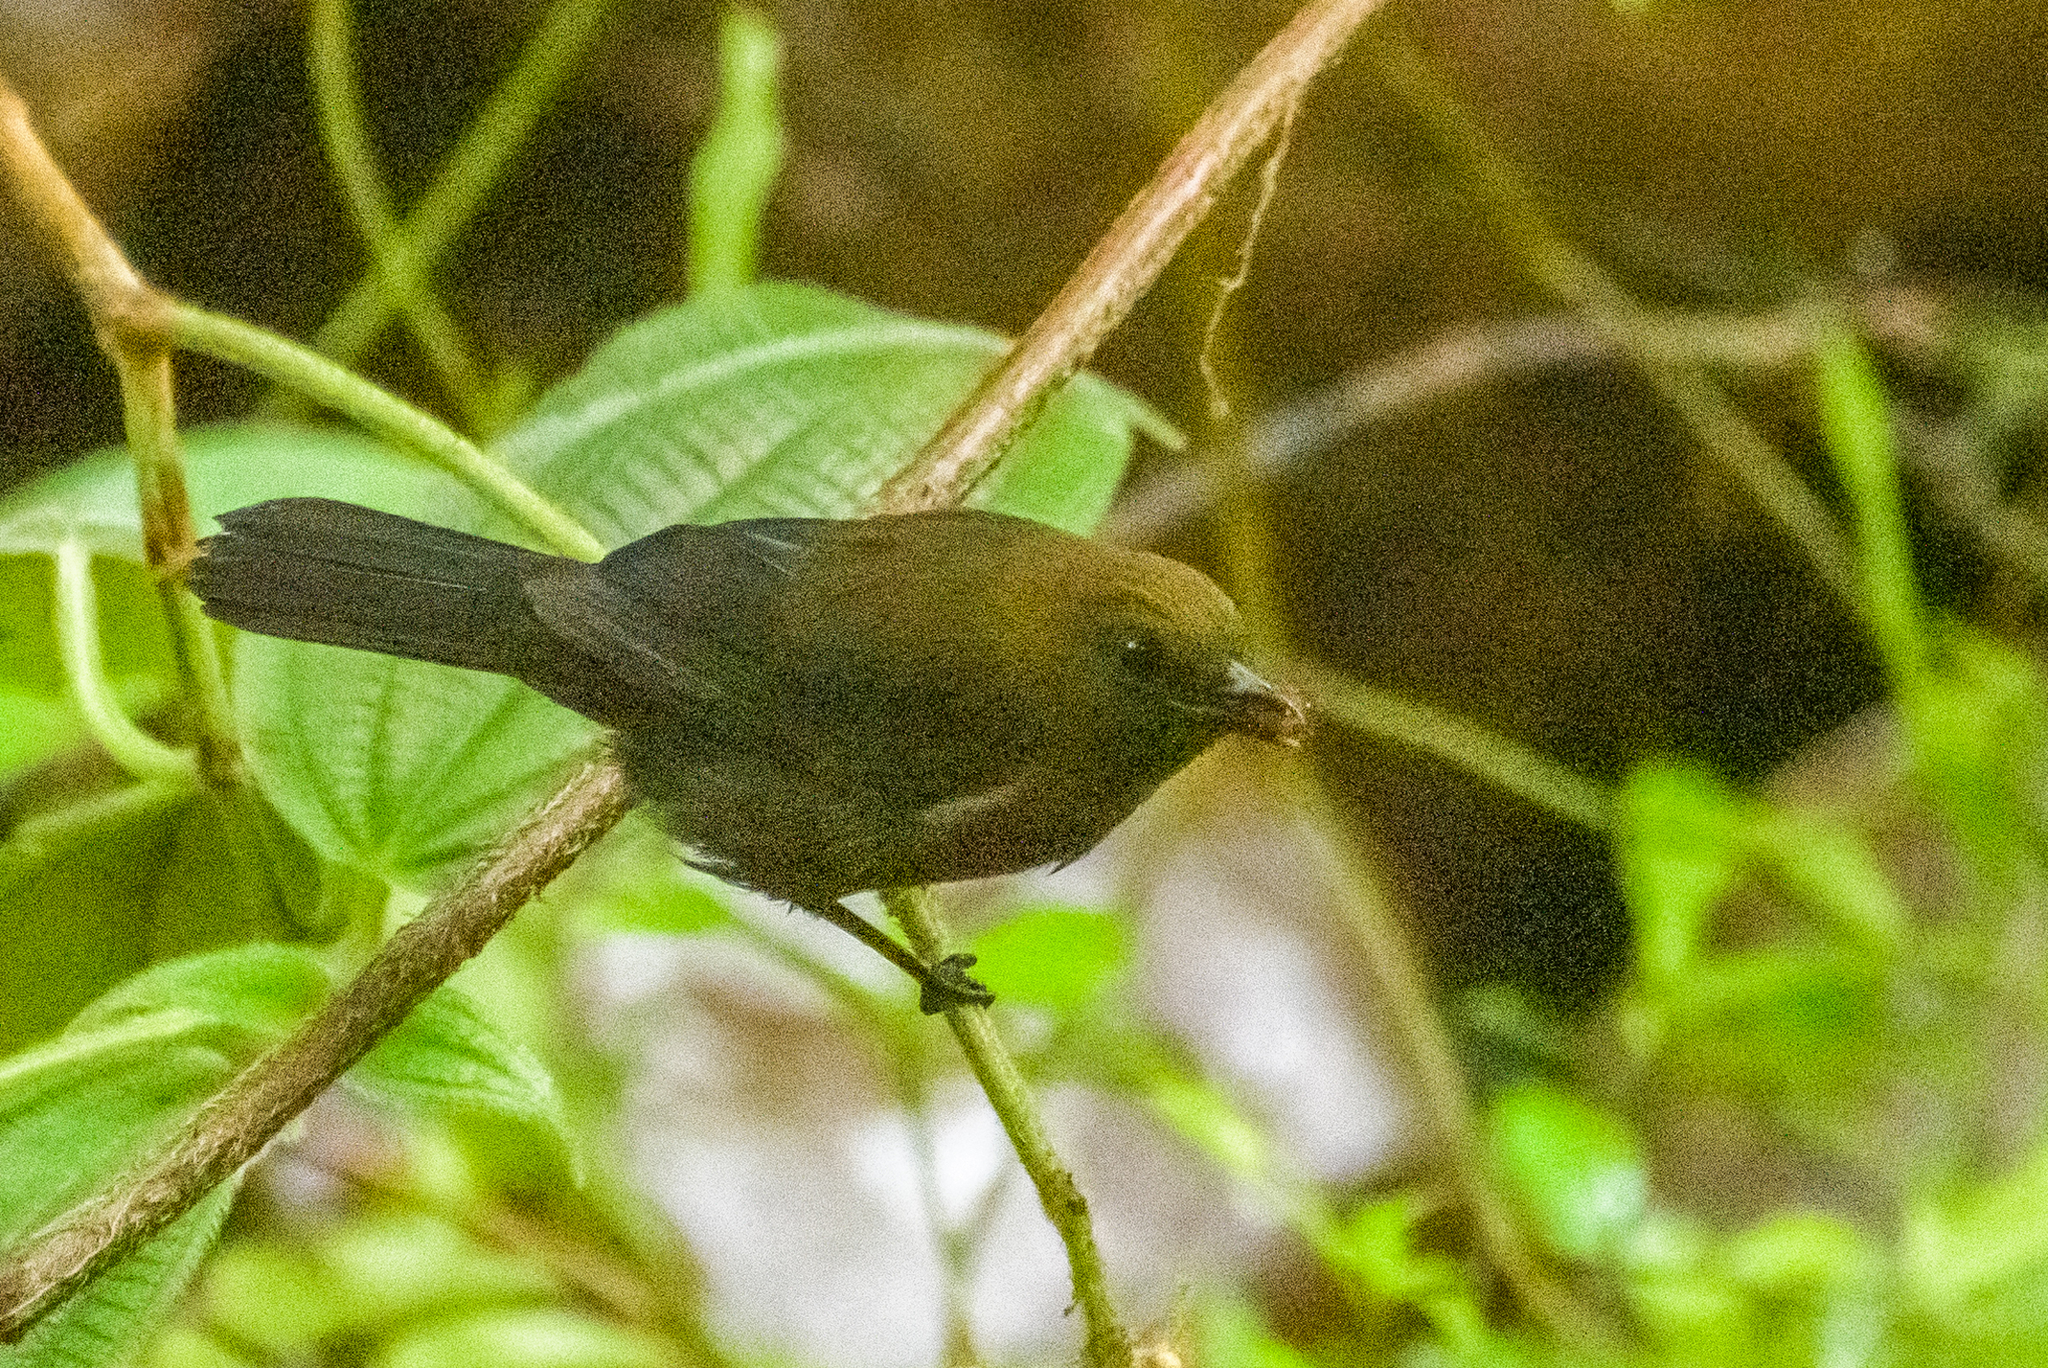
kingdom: Animalia
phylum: Chordata
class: Aves
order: Passeriformes
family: Thraupidae
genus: Tachyphonus
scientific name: Tachyphonus delatrii
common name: Tawny-crested tanager
